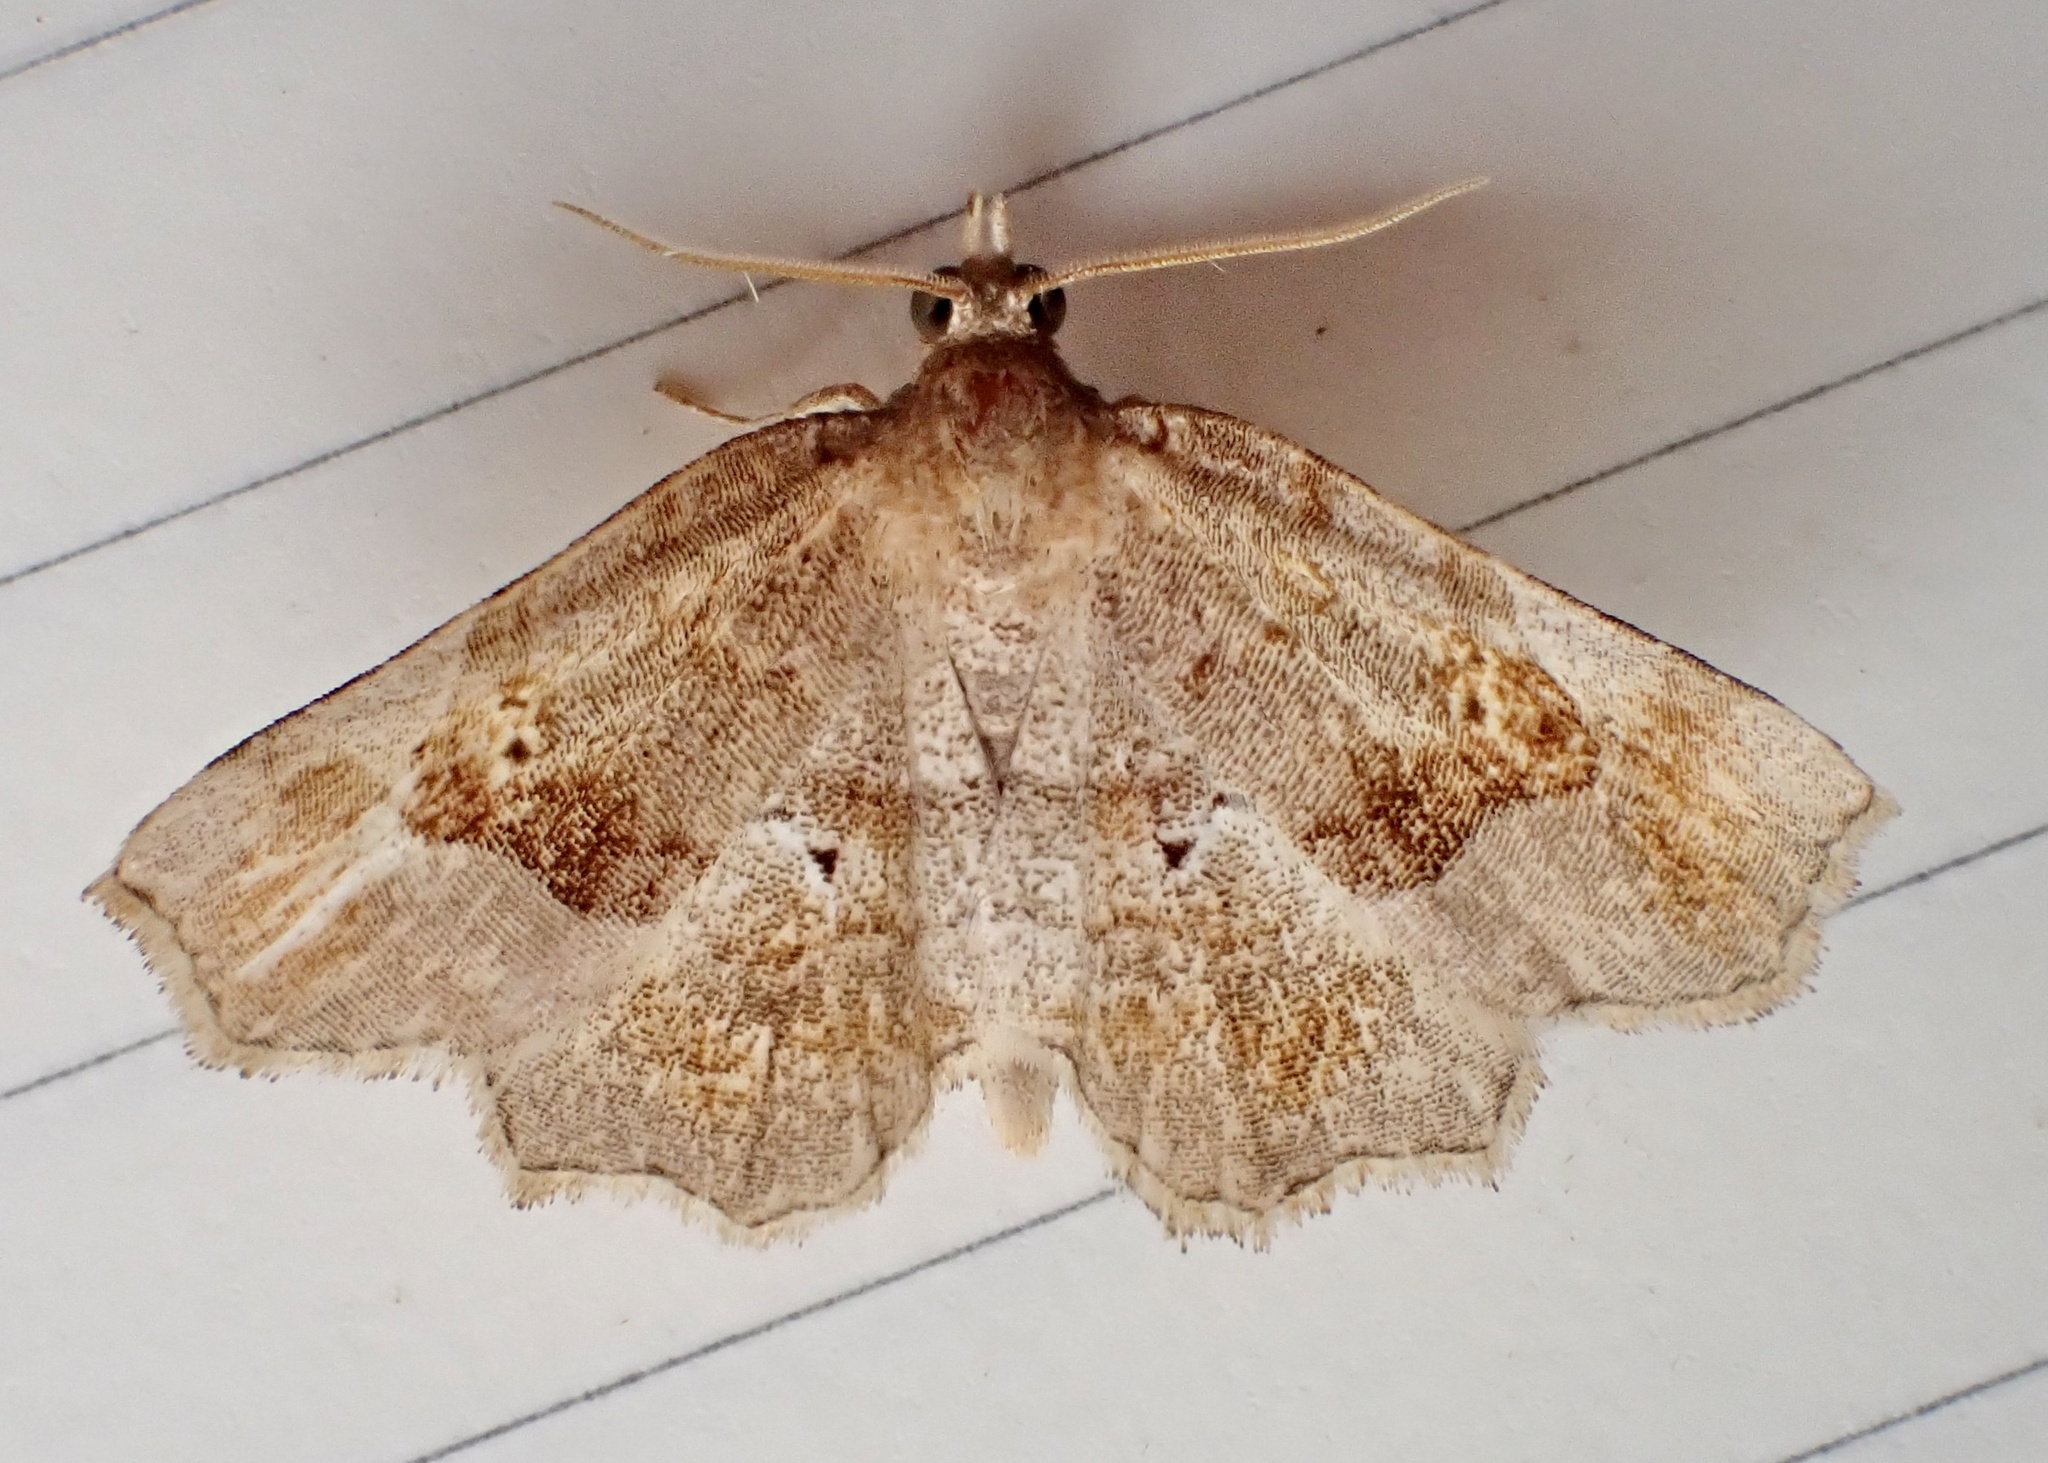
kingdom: Animalia
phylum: Arthropoda
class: Insecta
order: Lepidoptera
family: Erebidae
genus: Pangrapta
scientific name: Pangrapta decoralis
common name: Decorated owlet
